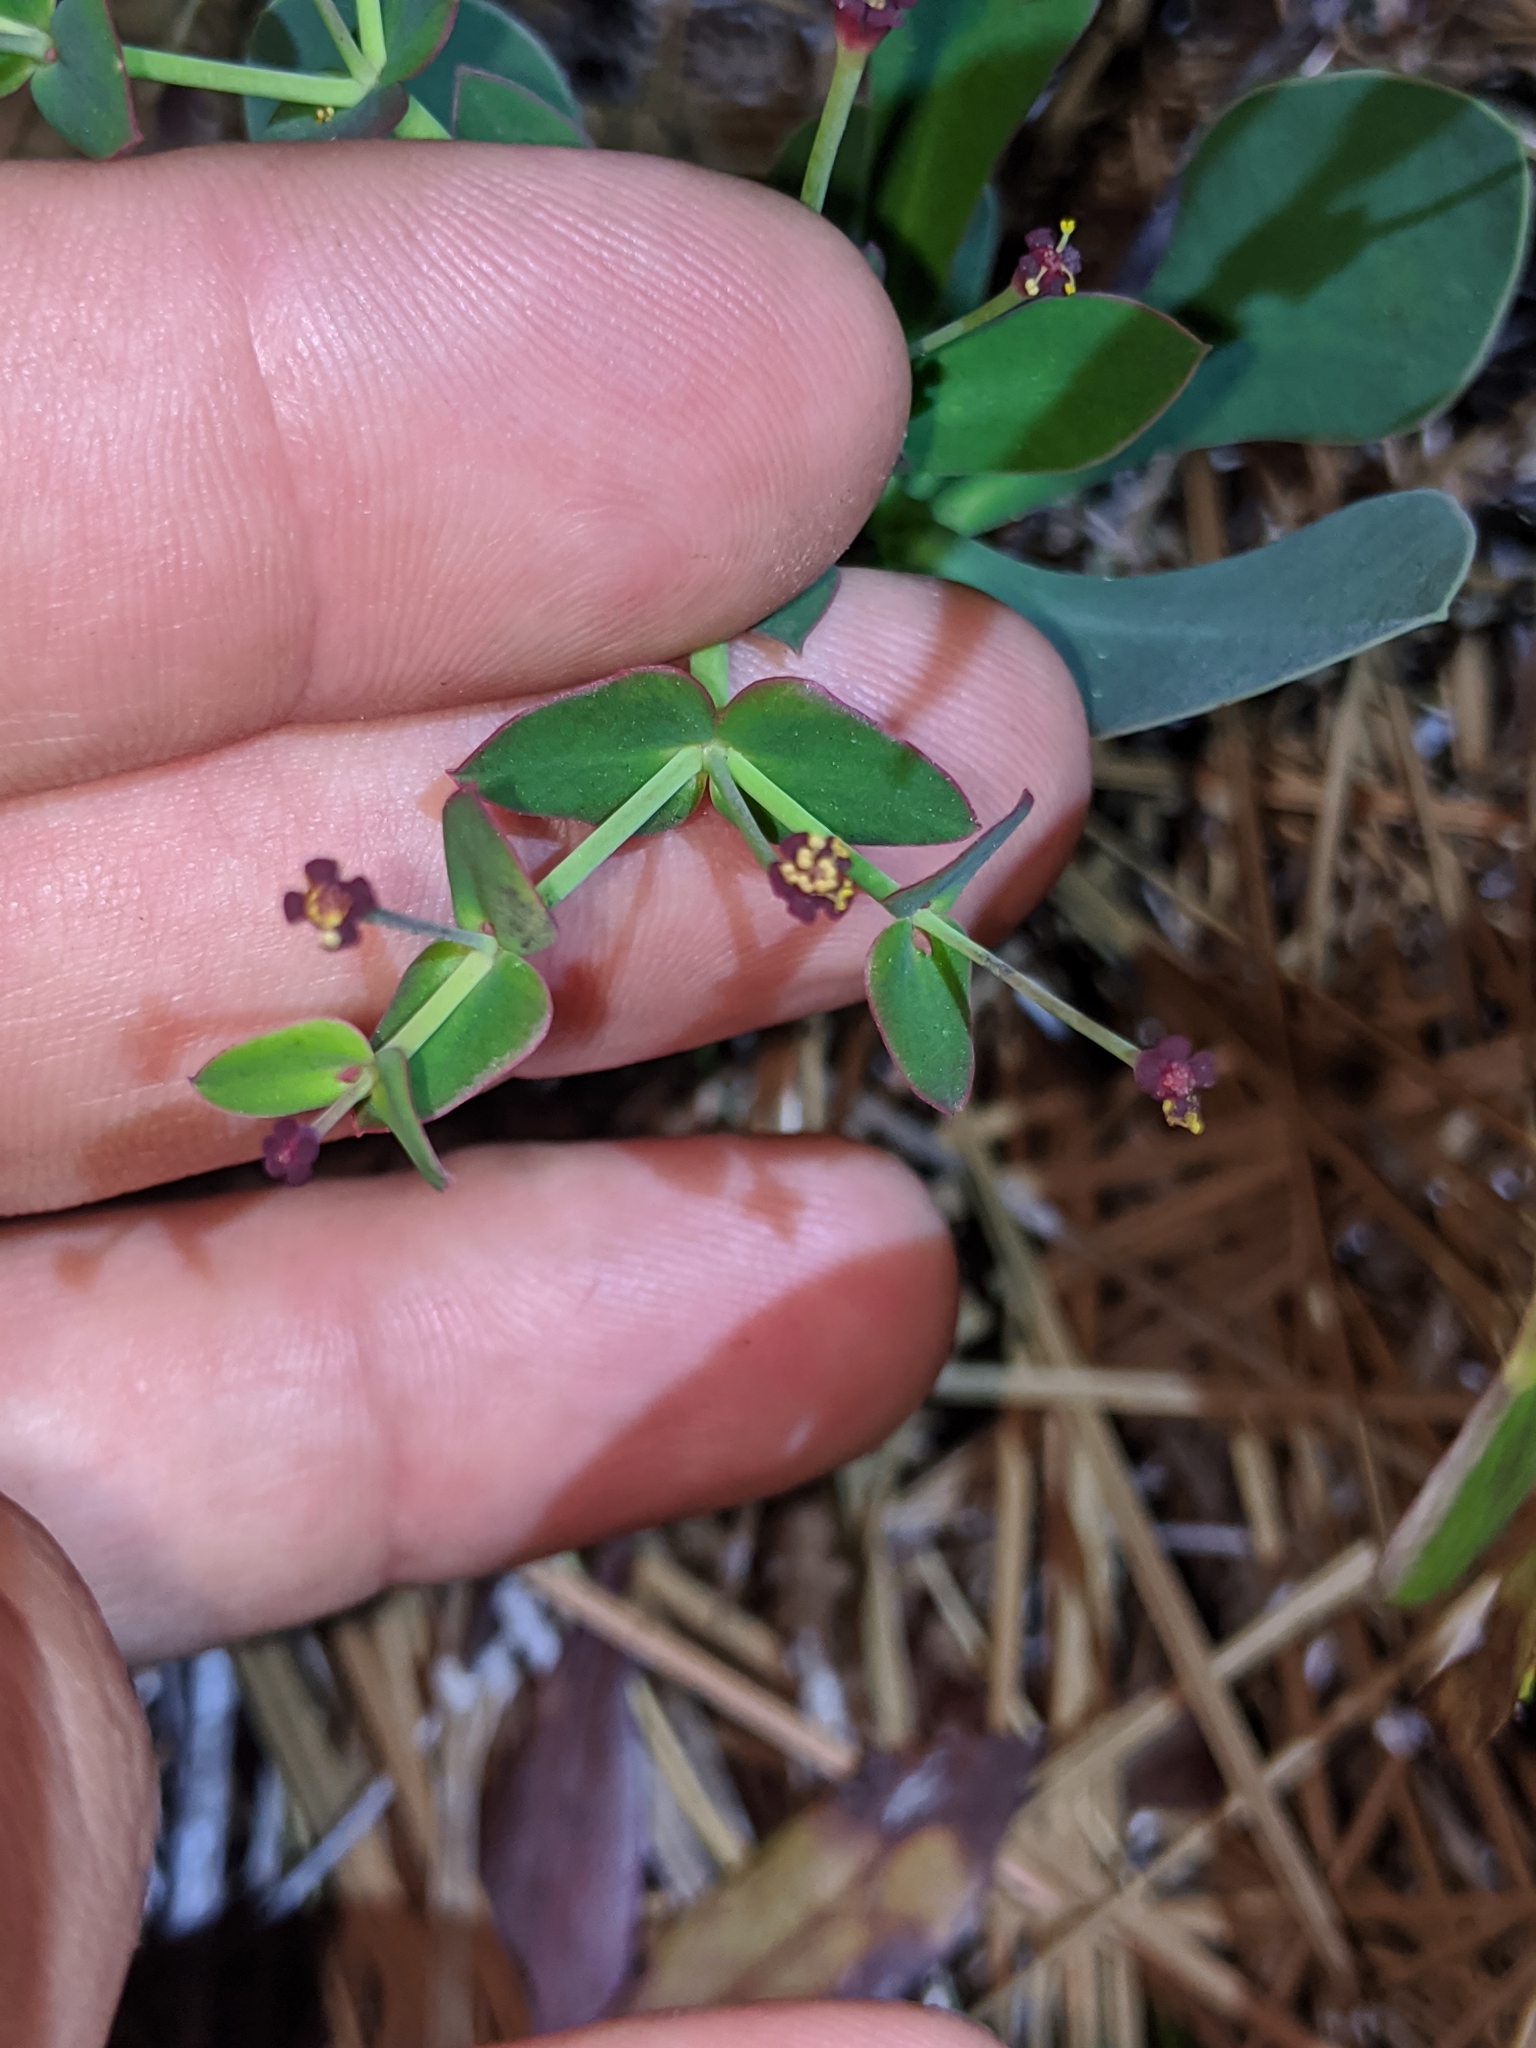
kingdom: Plantae
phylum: Tracheophyta
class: Magnoliopsida
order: Malpighiales
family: Euphorbiaceae
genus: Euphorbia
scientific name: Euphorbia telephioides
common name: Telephus spurge
